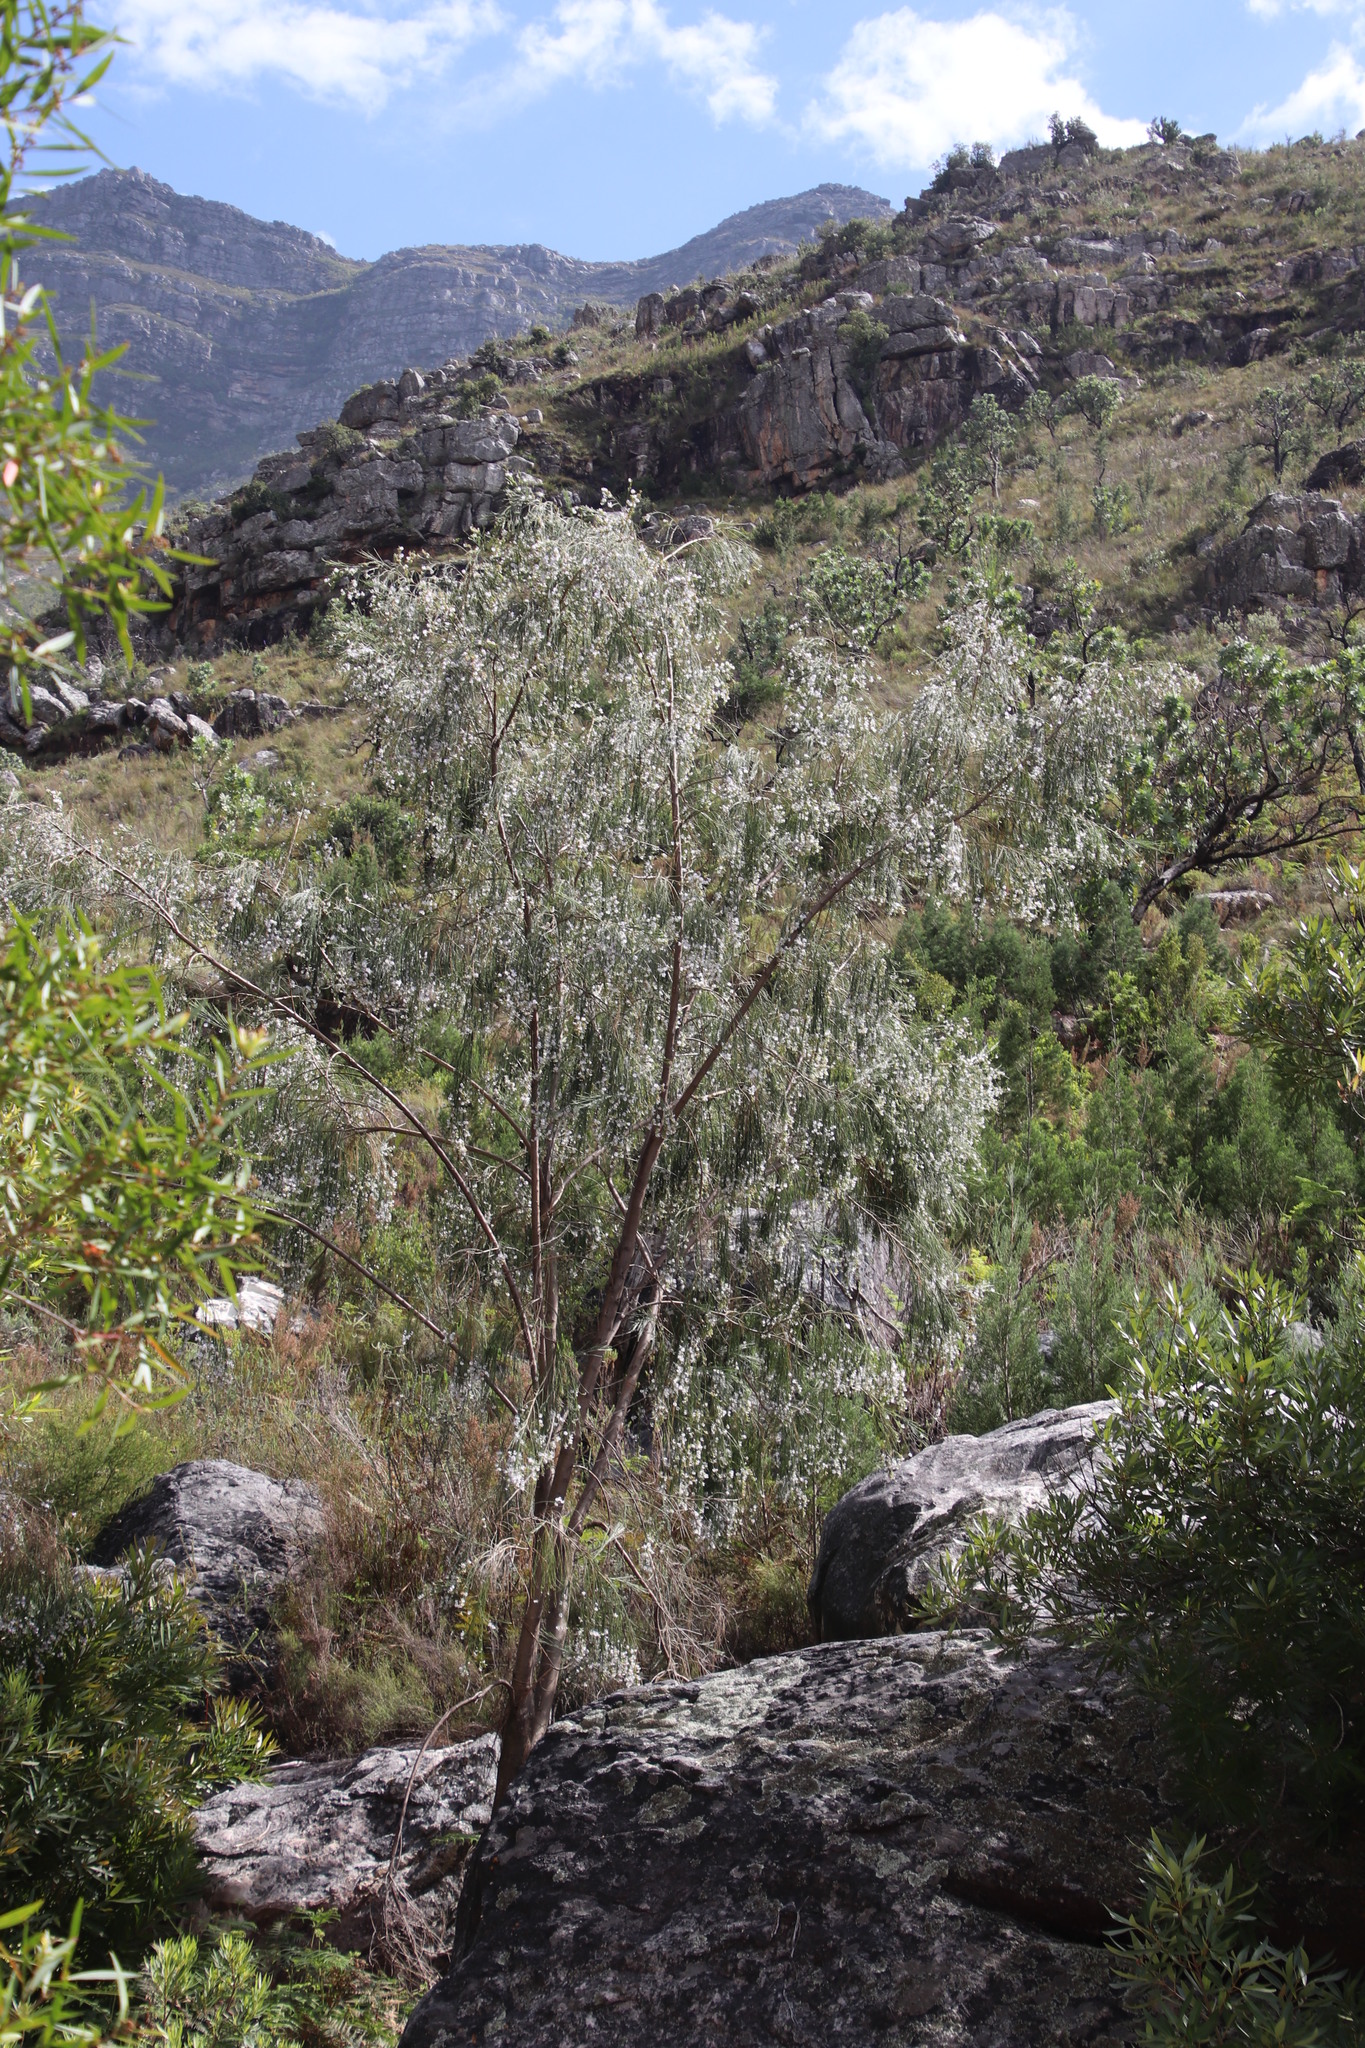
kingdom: Plantae
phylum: Tracheophyta
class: Magnoliopsida
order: Fabales
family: Fabaceae
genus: Psoralea
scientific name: Psoralea fleta
